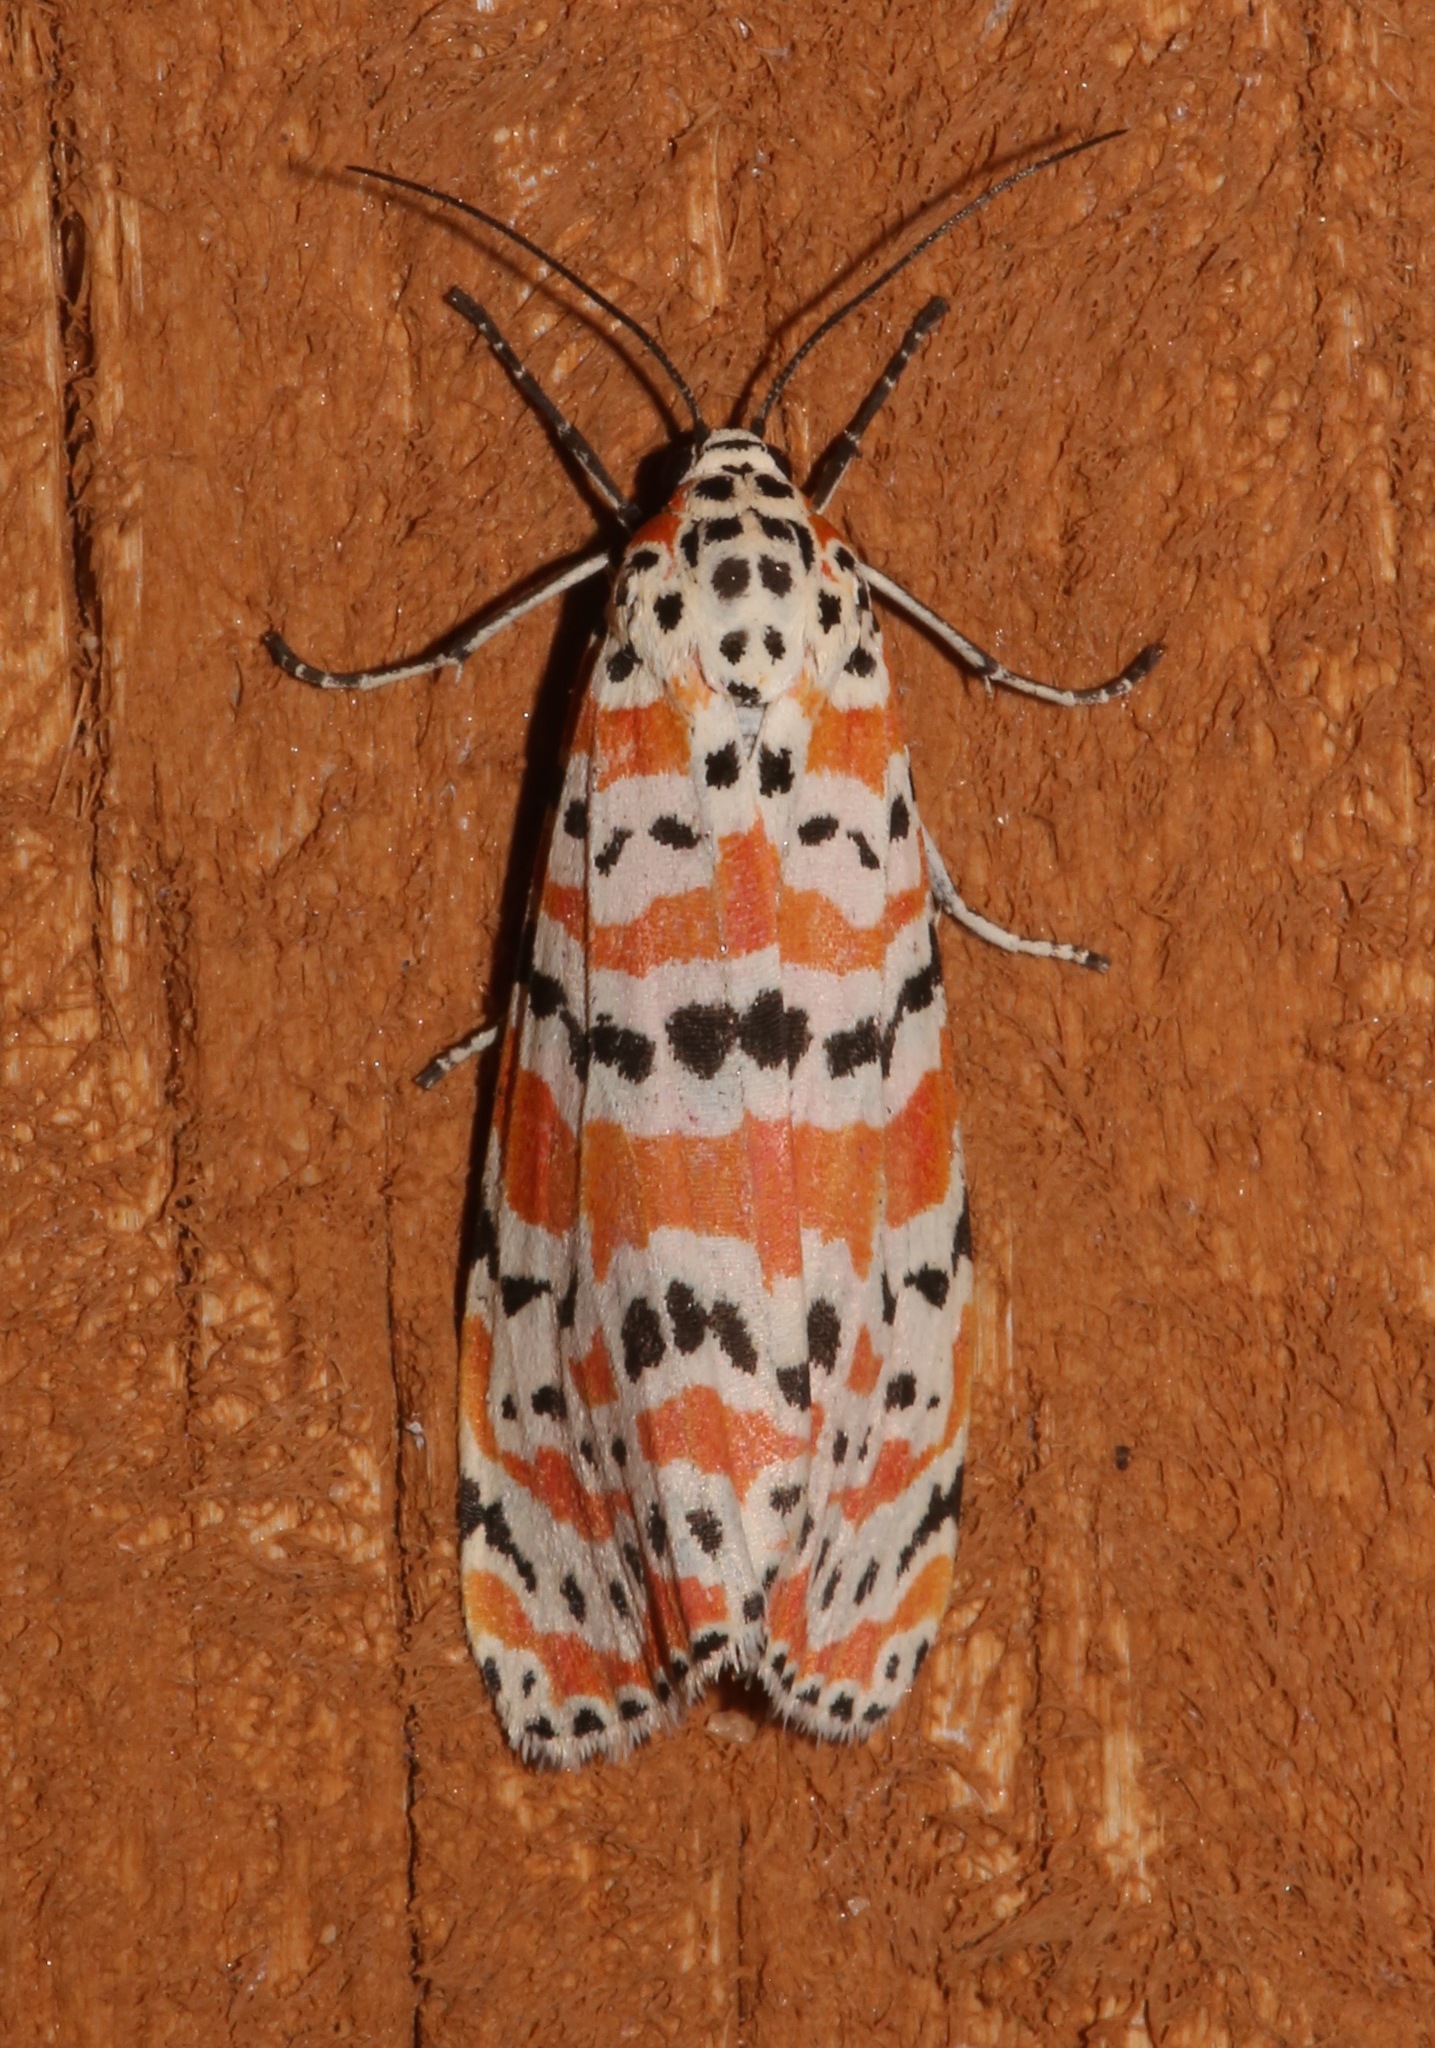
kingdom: Animalia
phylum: Arthropoda
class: Insecta
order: Lepidoptera
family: Erebidae
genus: Utetheisa
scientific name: Utetheisa ornatrix
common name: Beautiful utetheisa
